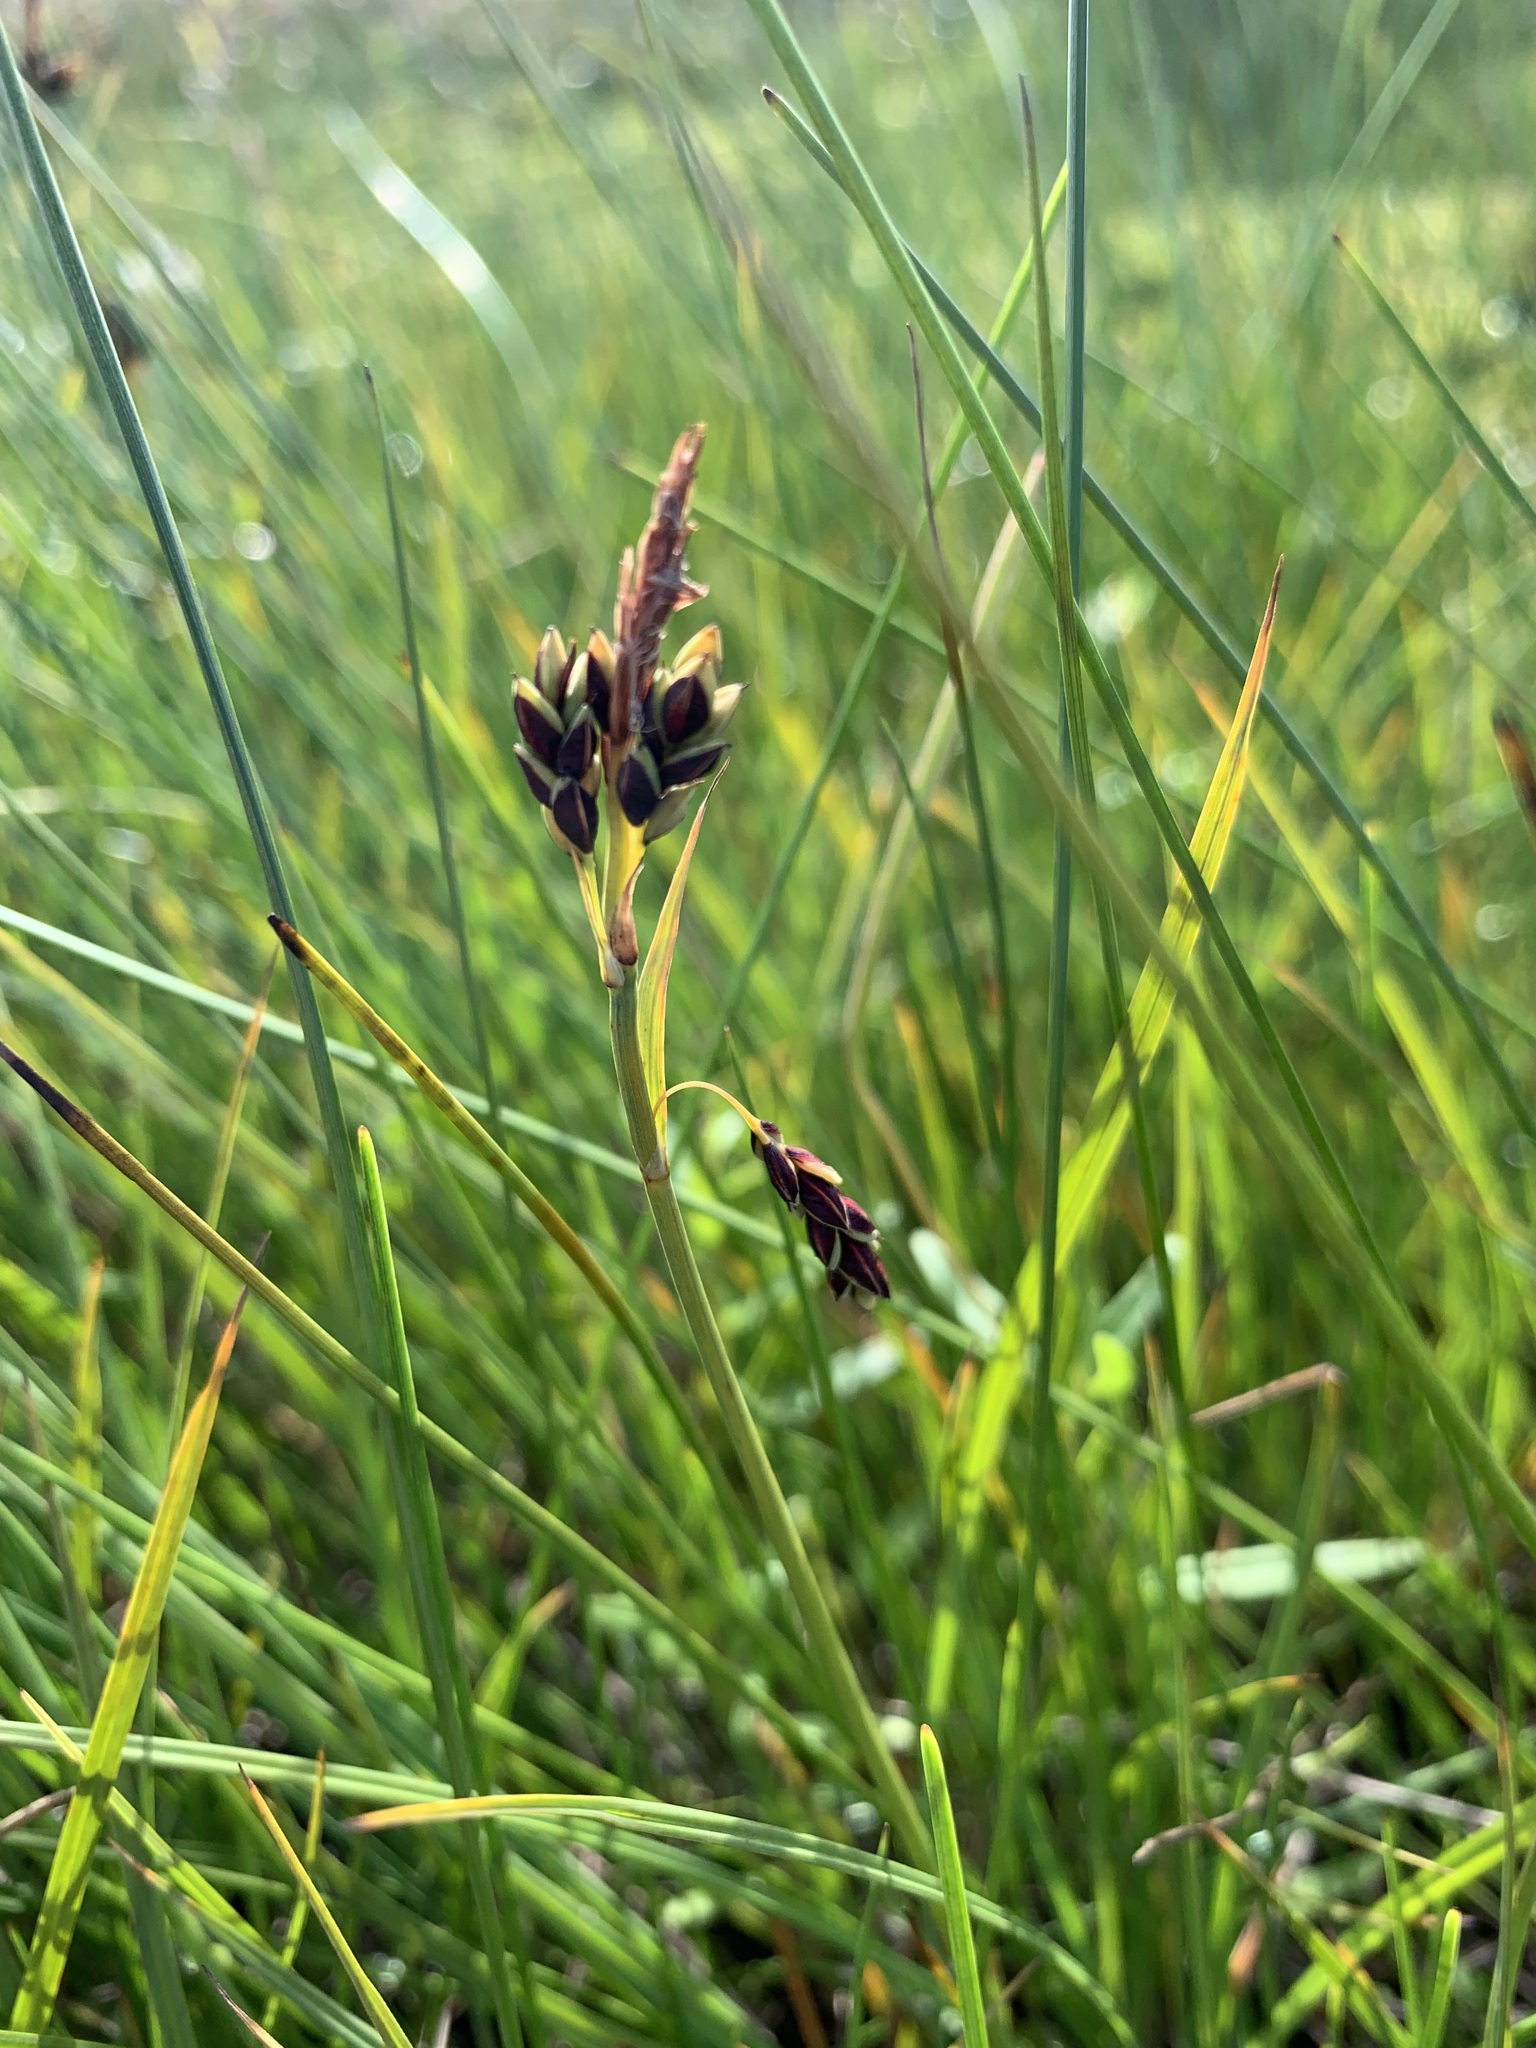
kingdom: Plantae
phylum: Tracheophyta
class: Liliopsida
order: Poales
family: Cyperaceae
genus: Carex
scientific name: Carex limosa
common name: Bog sedge
